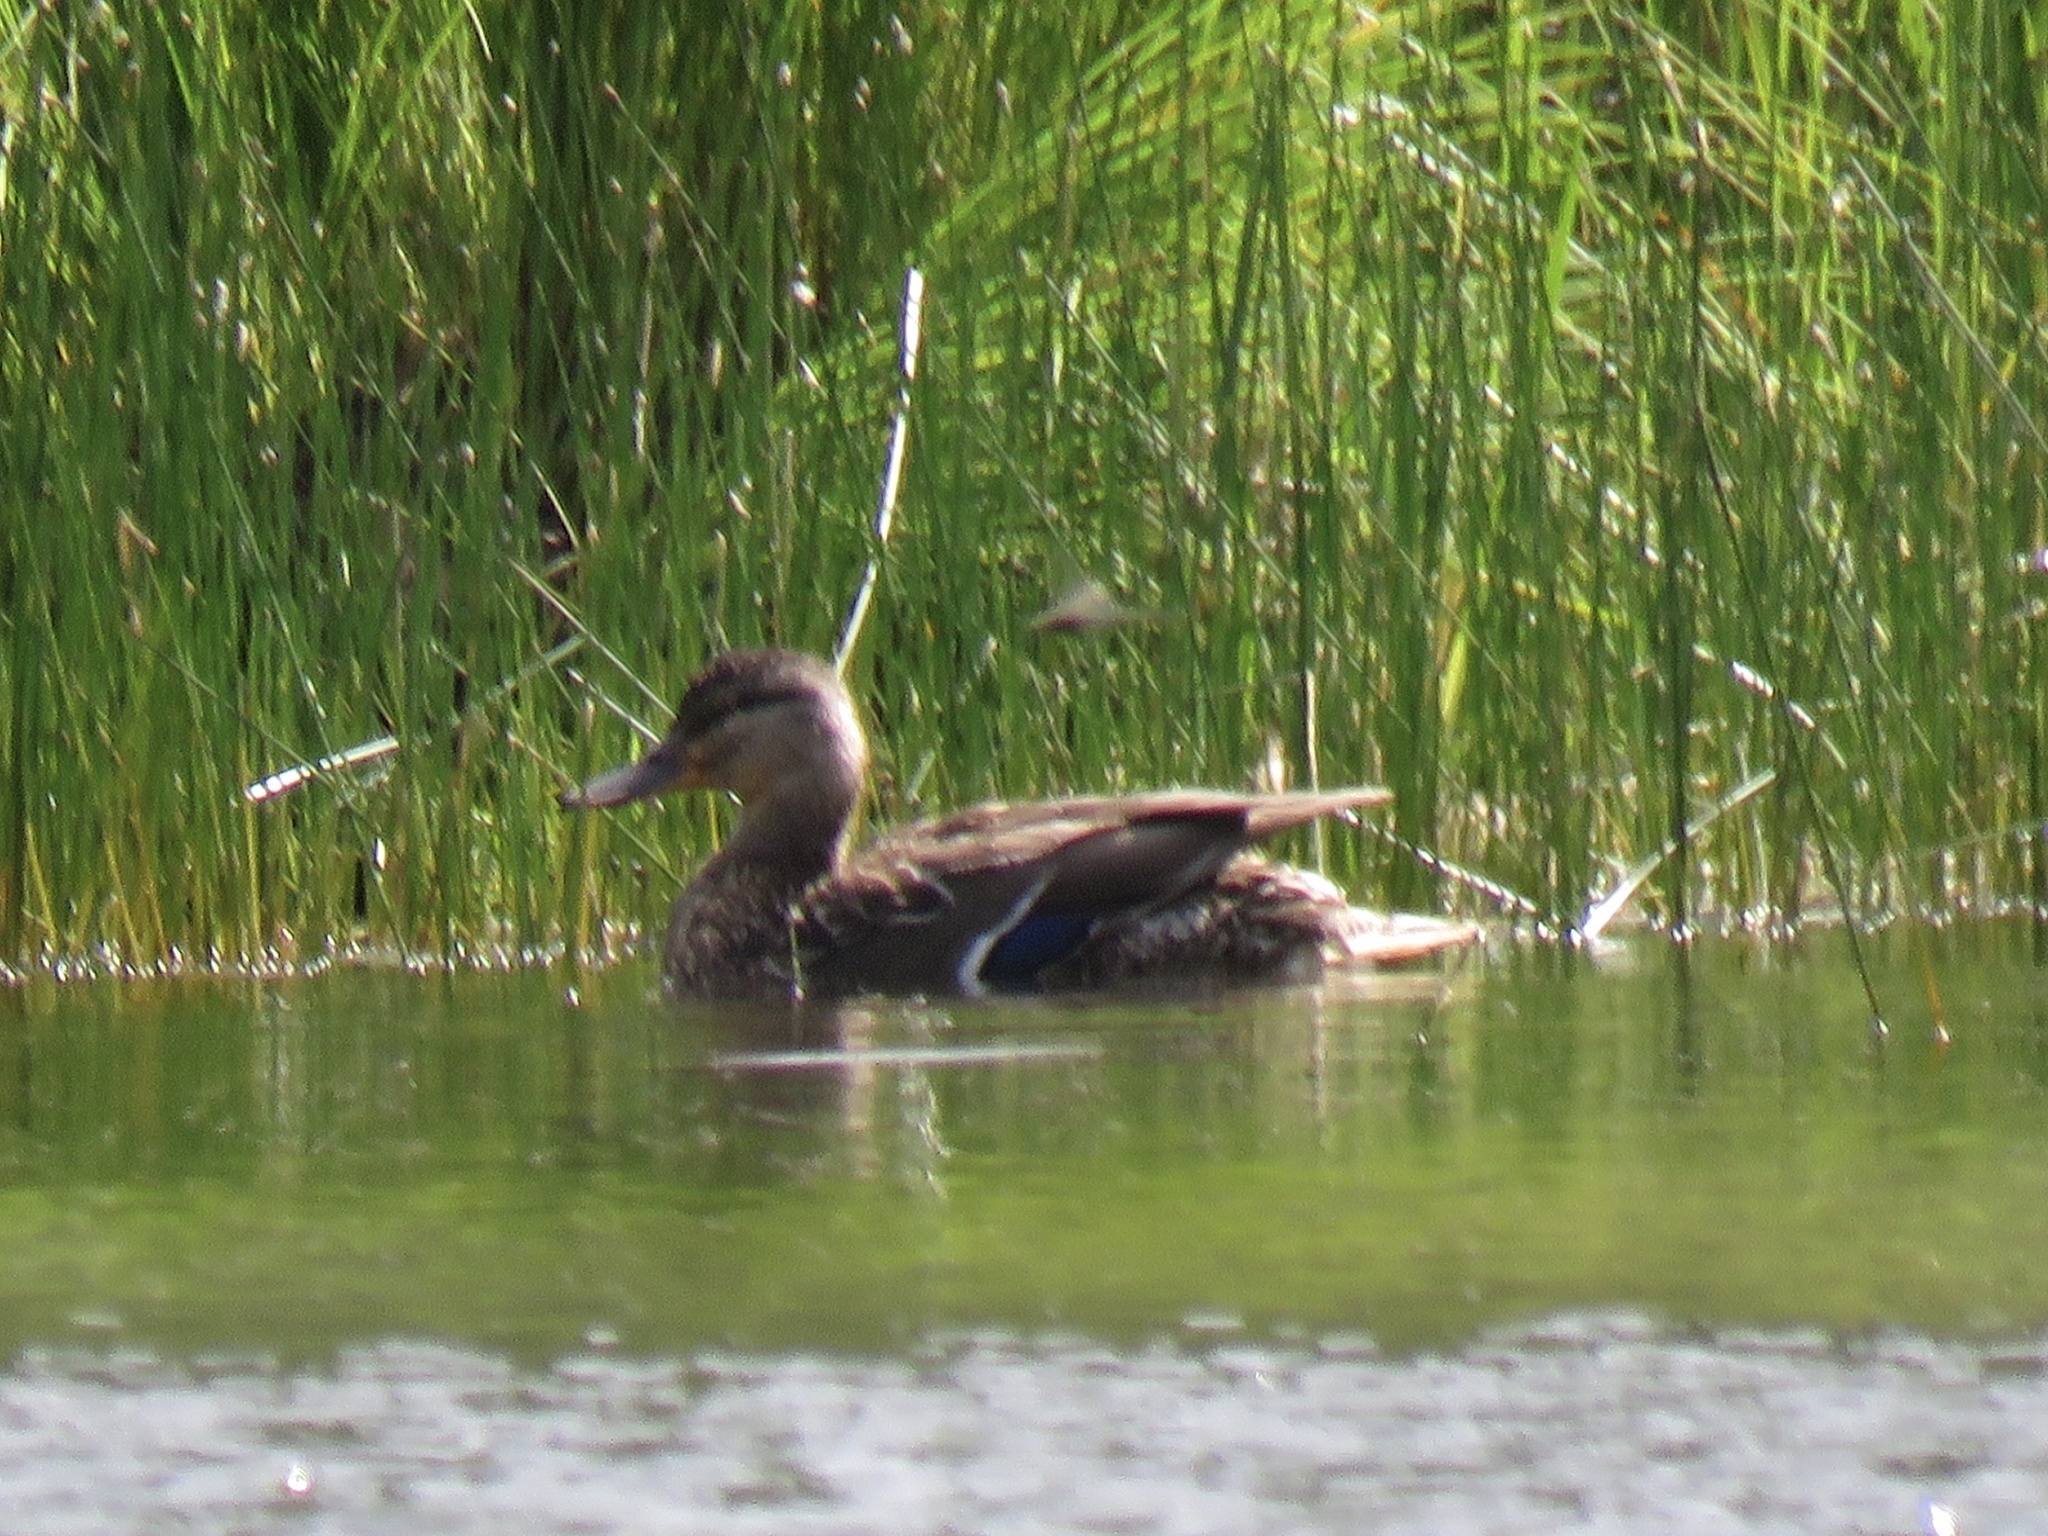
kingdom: Animalia
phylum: Chordata
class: Aves
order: Anseriformes
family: Anatidae
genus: Anas
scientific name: Anas platyrhynchos
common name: Mallard
